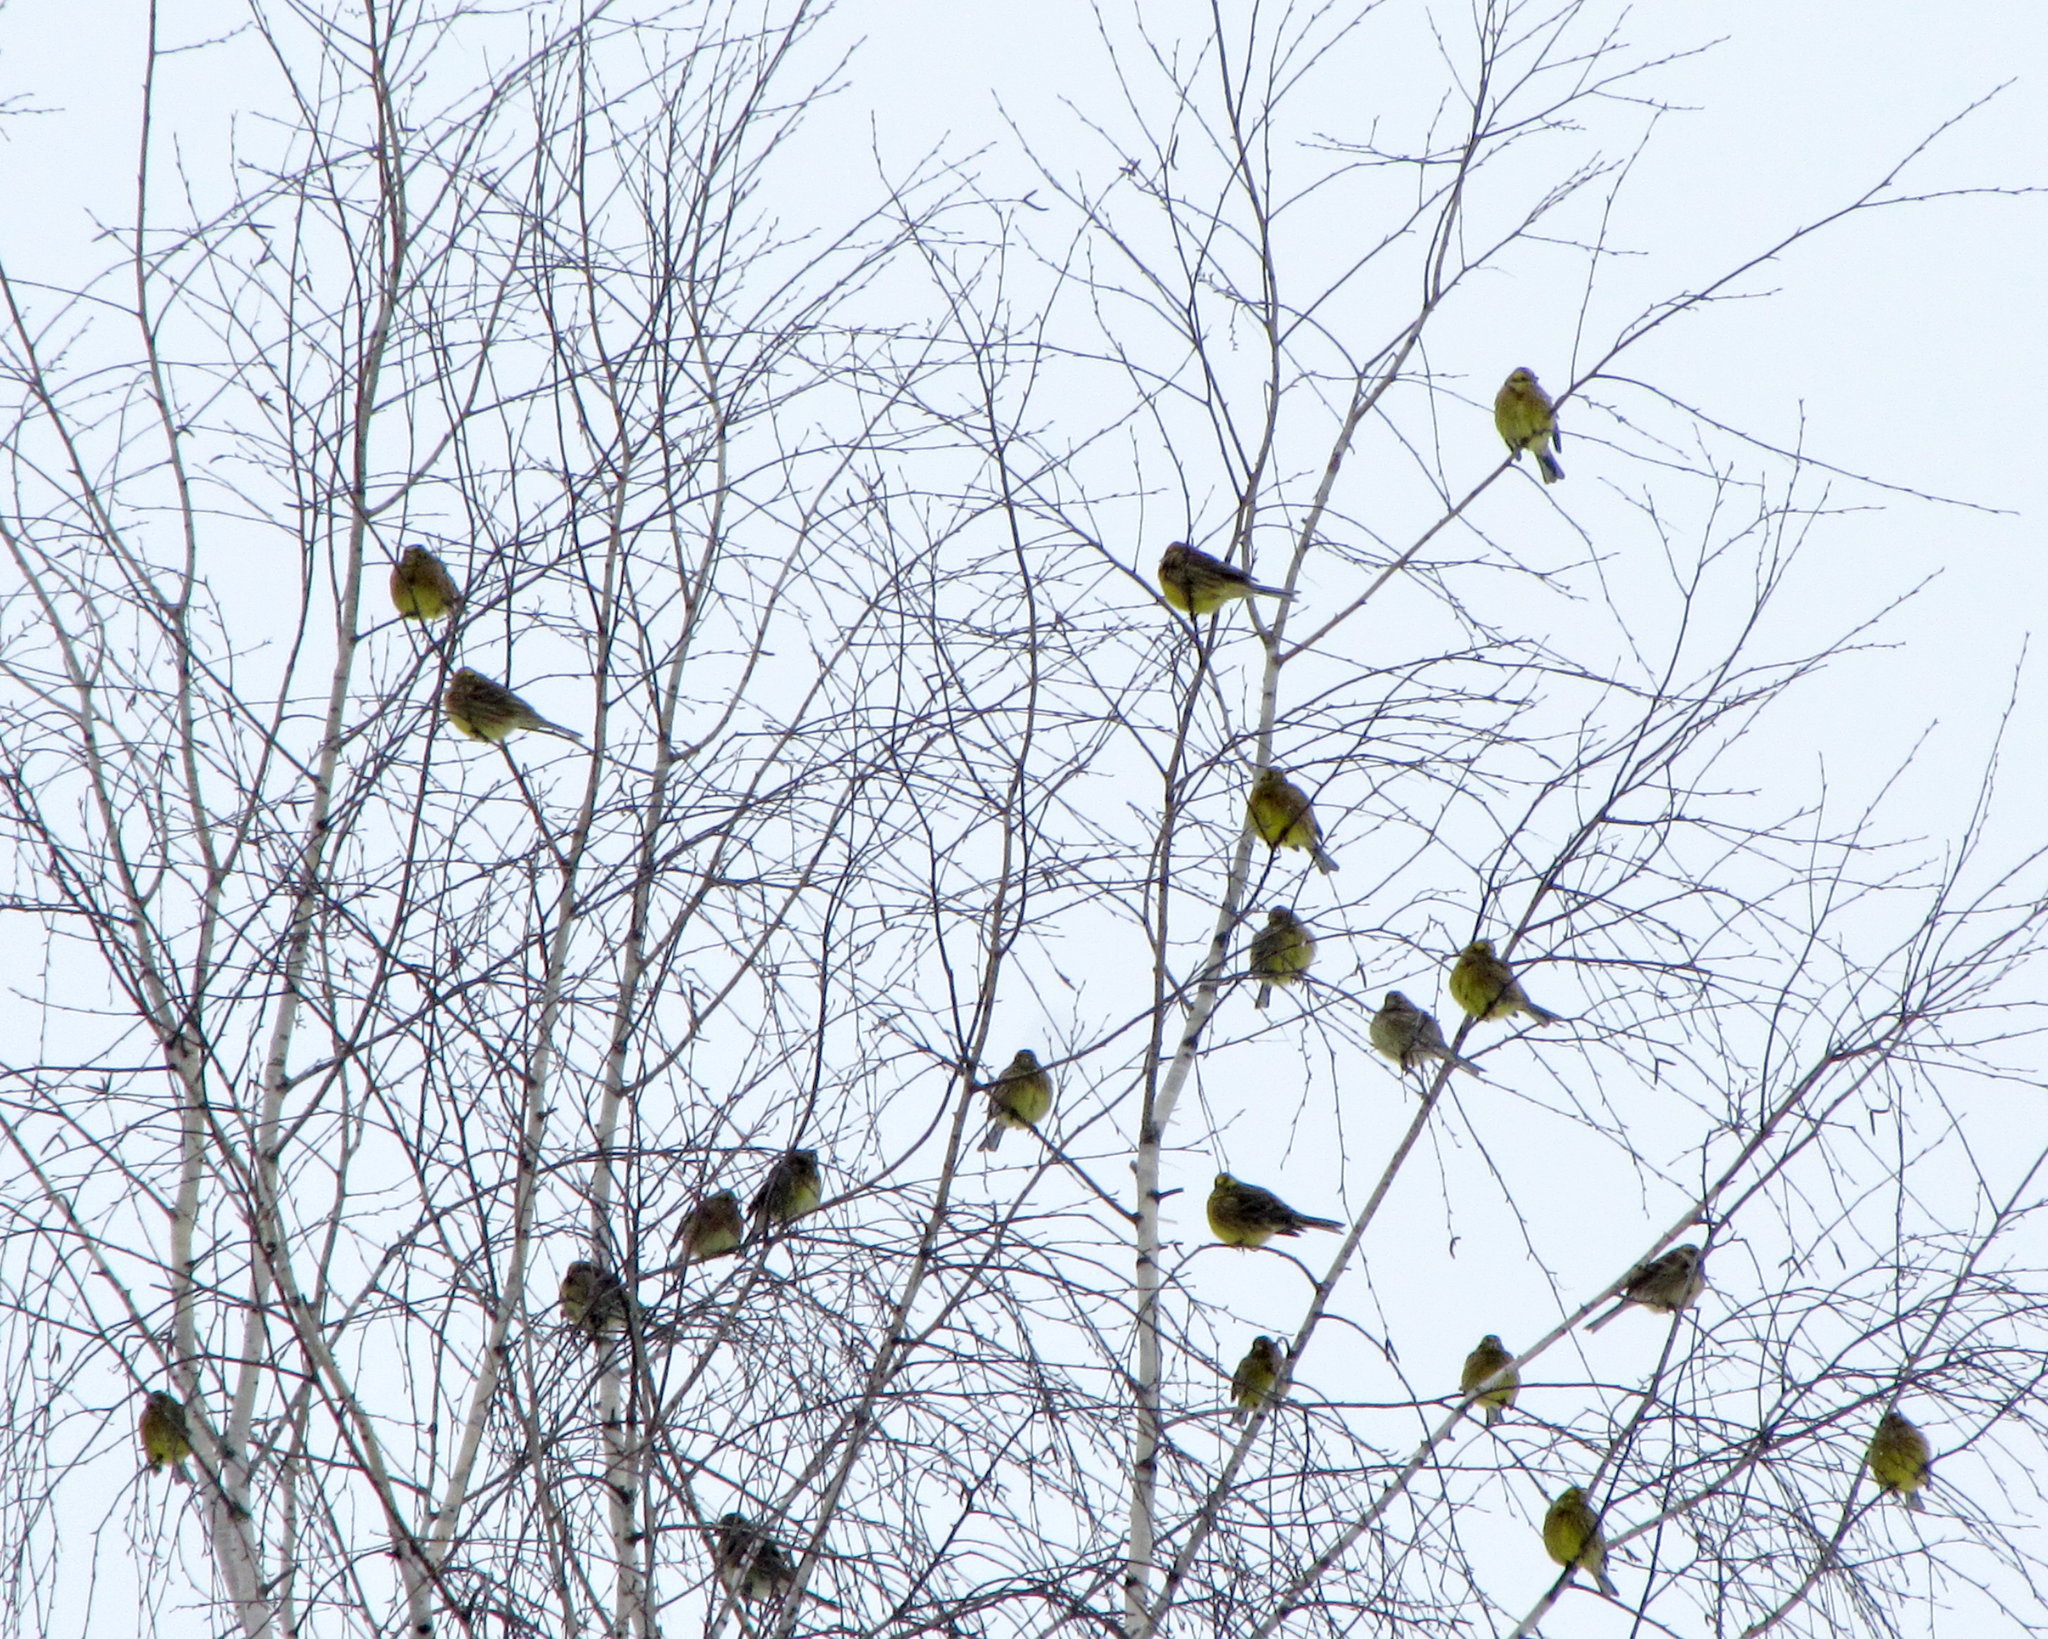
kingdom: Animalia
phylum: Chordata
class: Aves
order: Passeriformes
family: Emberizidae
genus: Emberiza
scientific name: Emberiza citrinella
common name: Yellowhammer
